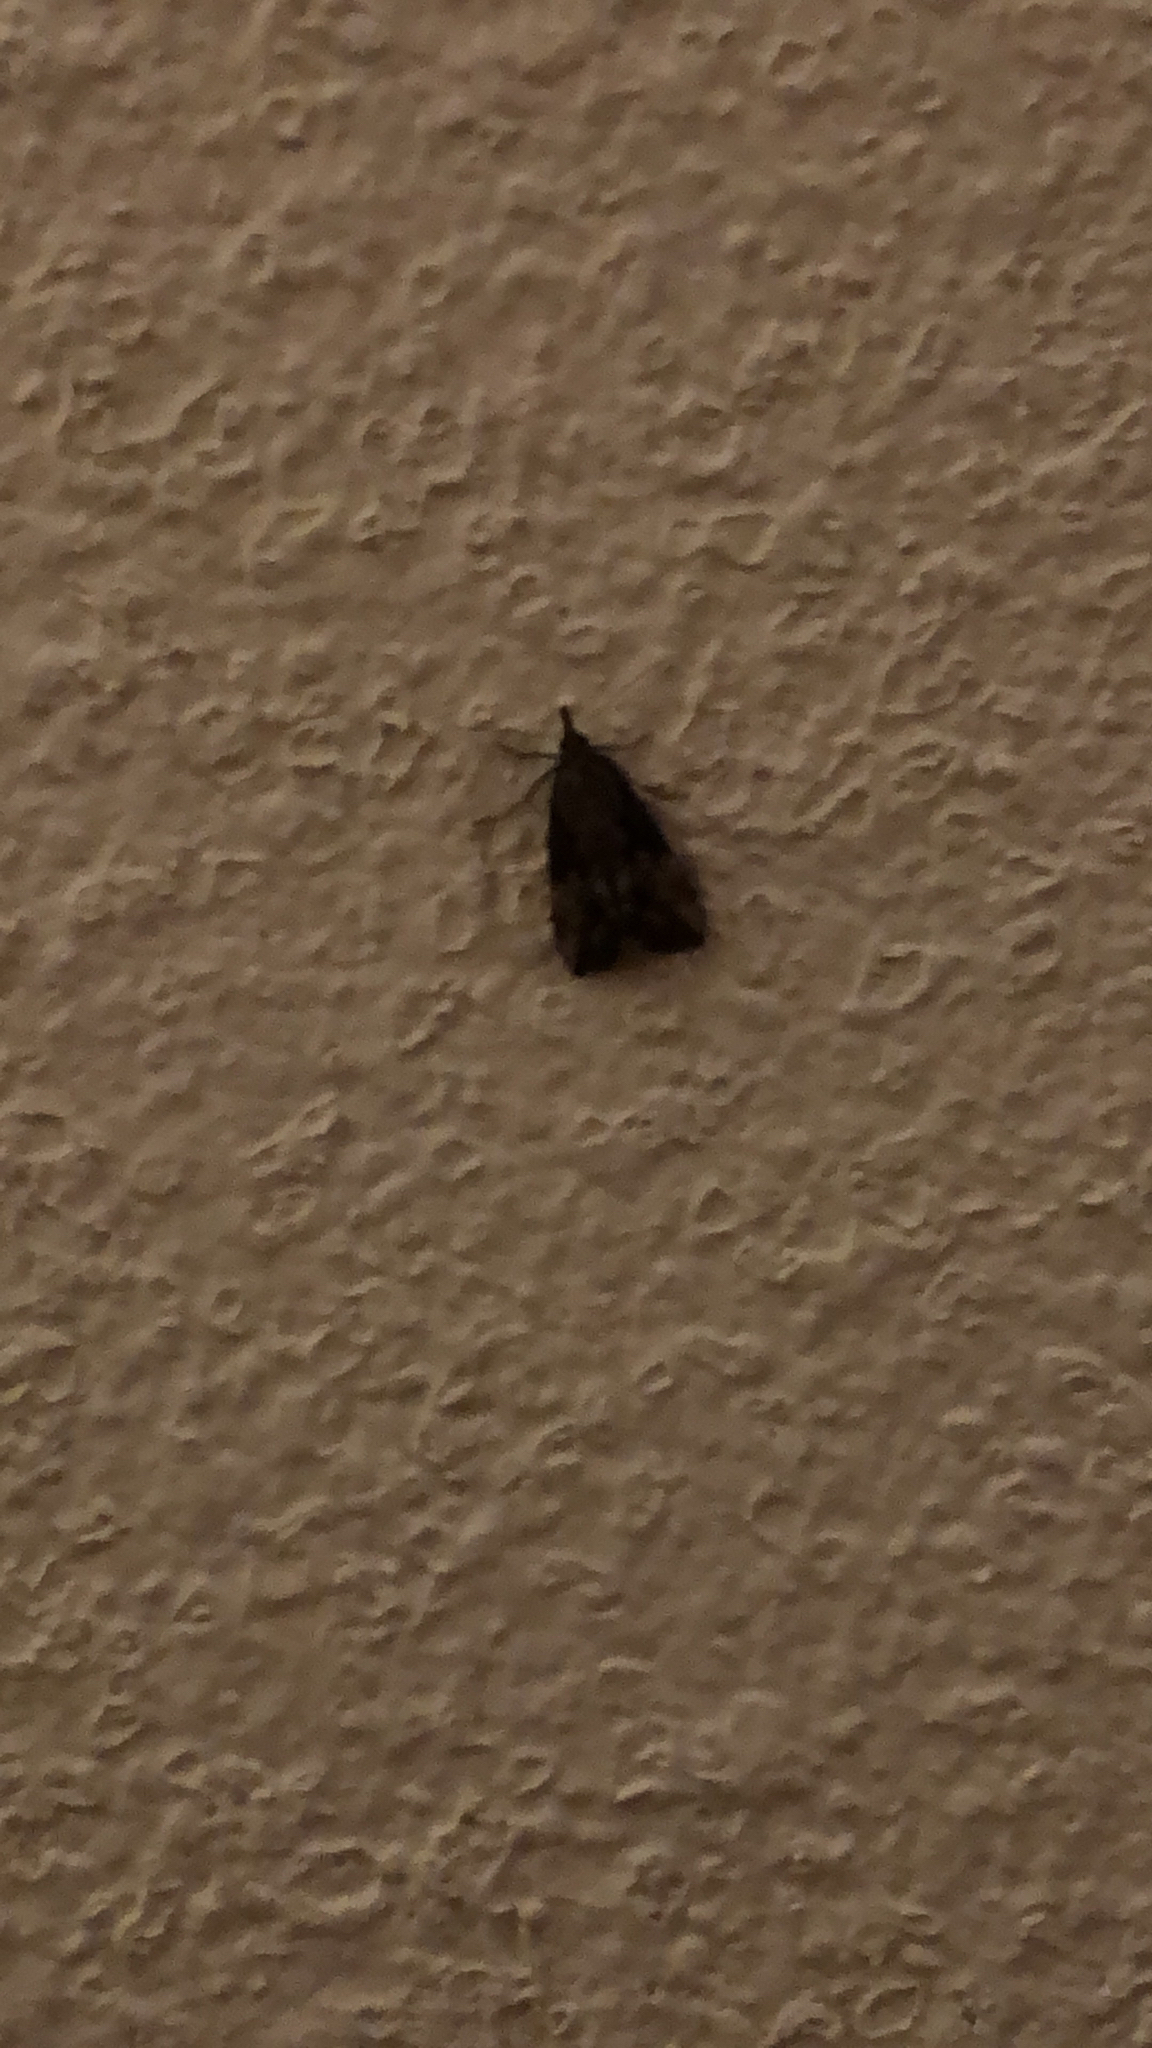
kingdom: Animalia
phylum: Arthropoda
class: Insecta
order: Lepidoptera
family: Erebidae
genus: Hypena
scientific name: Hypena scabra
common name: Green cloverworm
